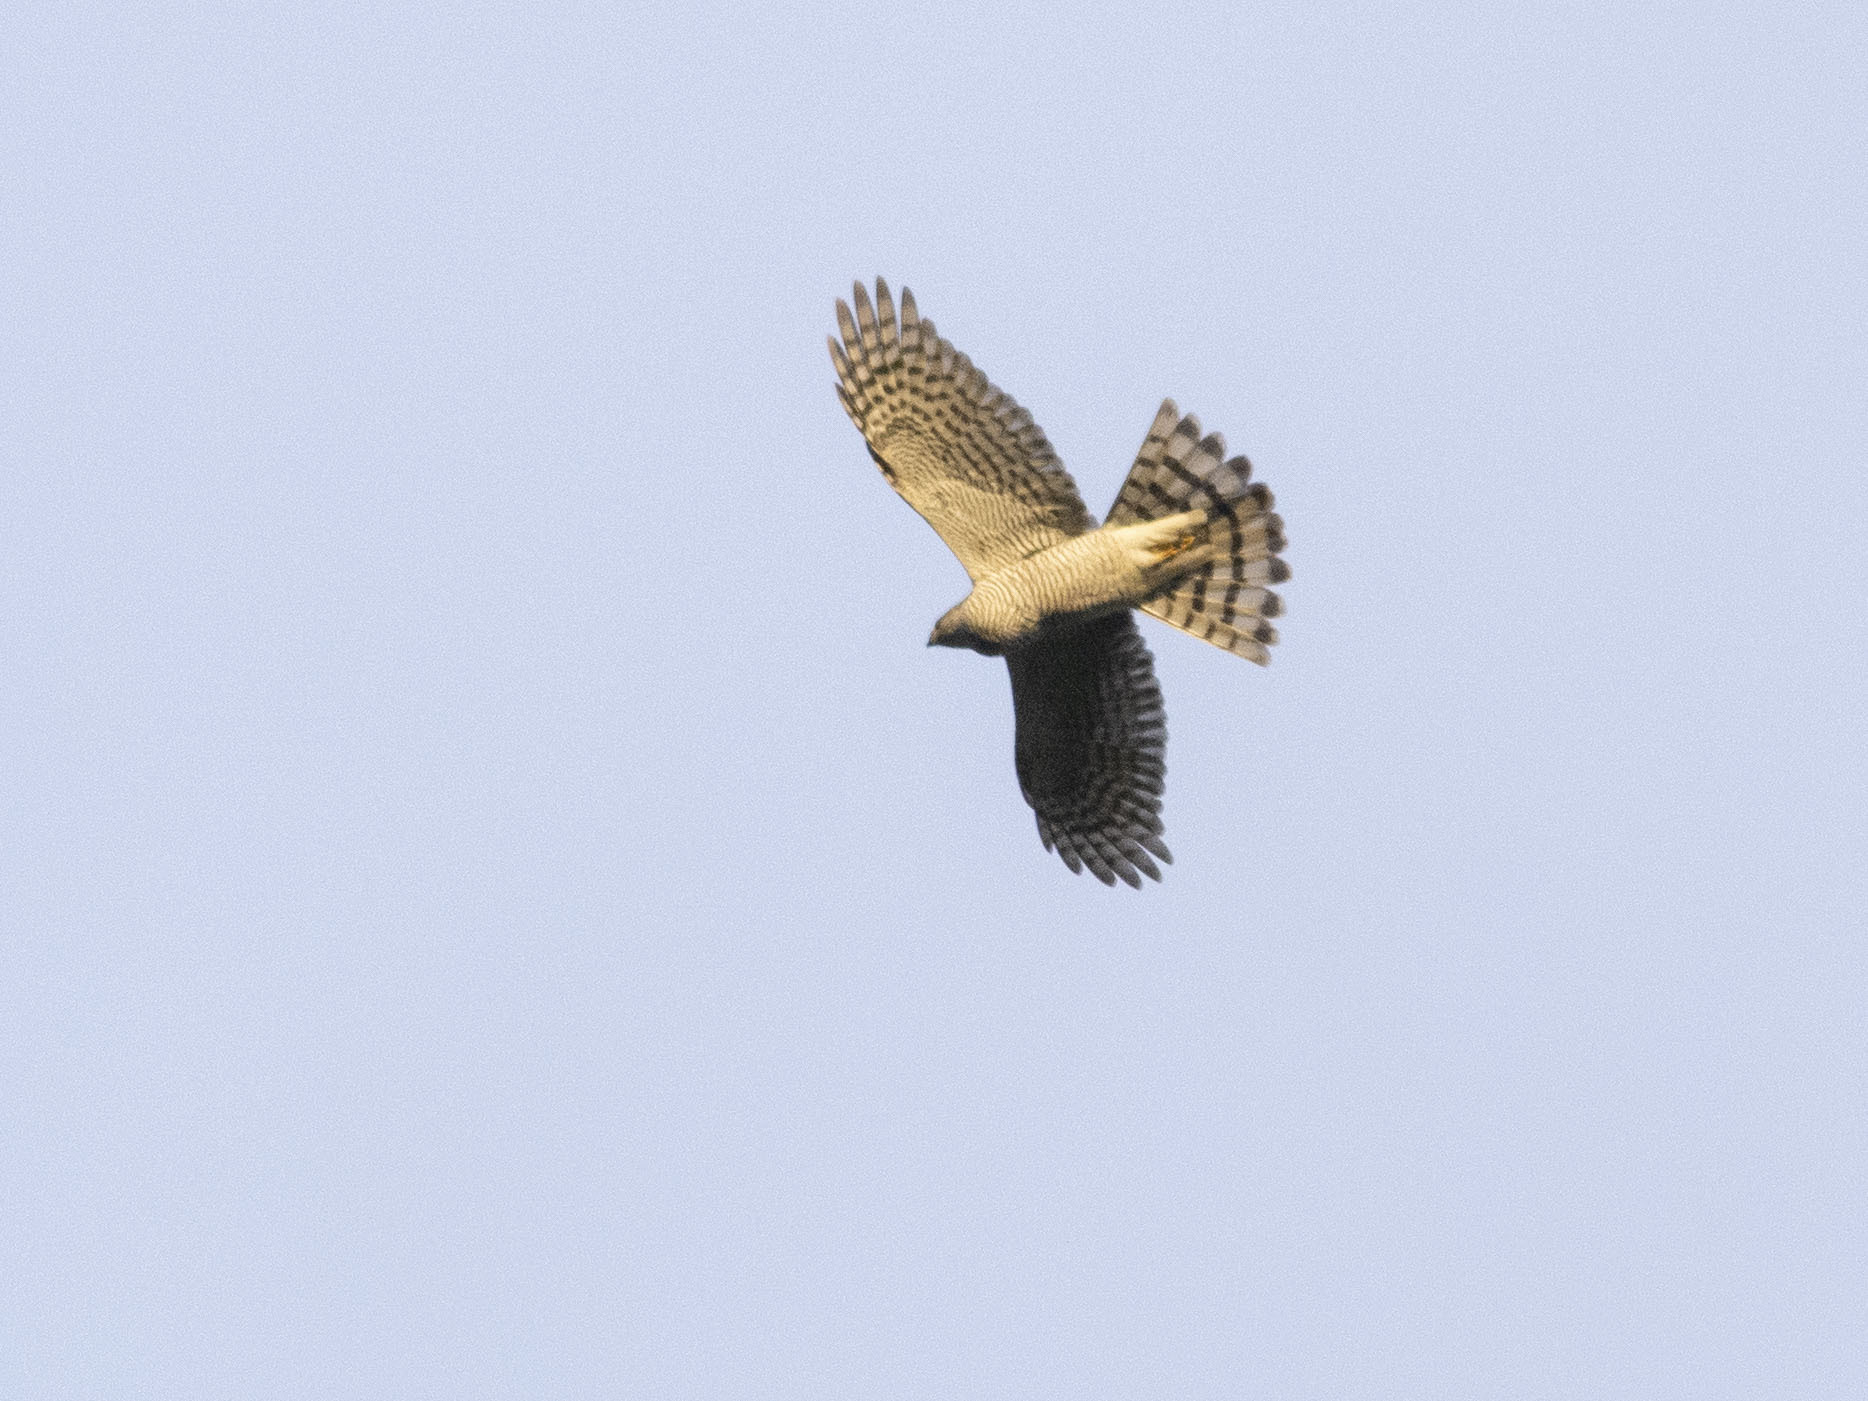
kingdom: Animalia
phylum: Chordata
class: Aves
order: Accipitriformes
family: Accipitridae
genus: Accipiter
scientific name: Accipiter nisus
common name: Eurasian sparrowhawk
